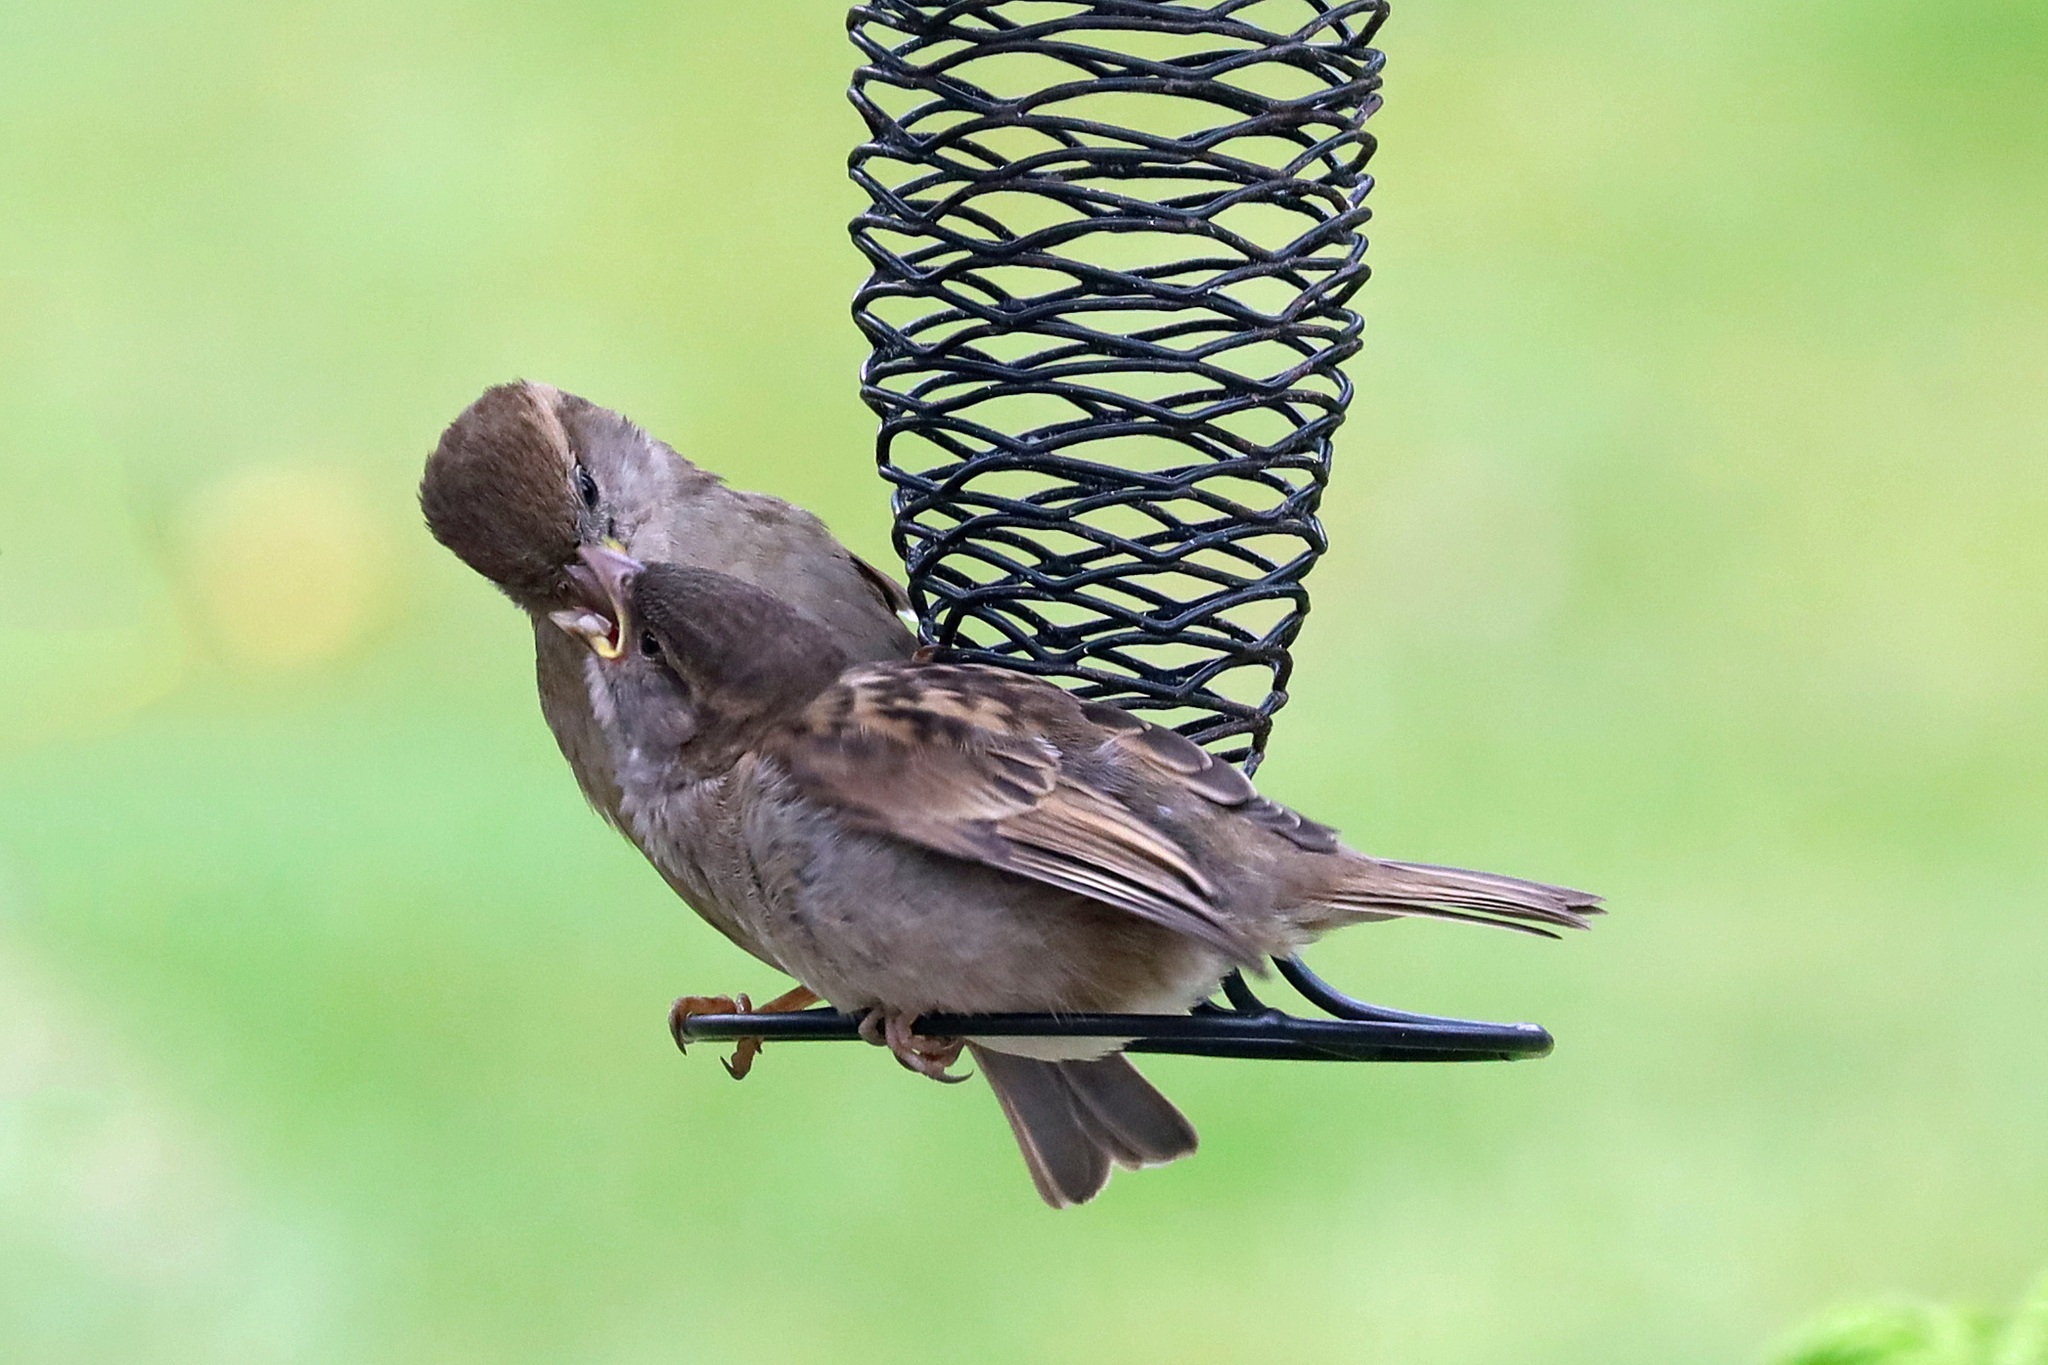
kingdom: Animalia
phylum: Chordata
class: Aves
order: Passeriformes
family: Passeridae
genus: Passer
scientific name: Passer domesticus
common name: House sparrow
